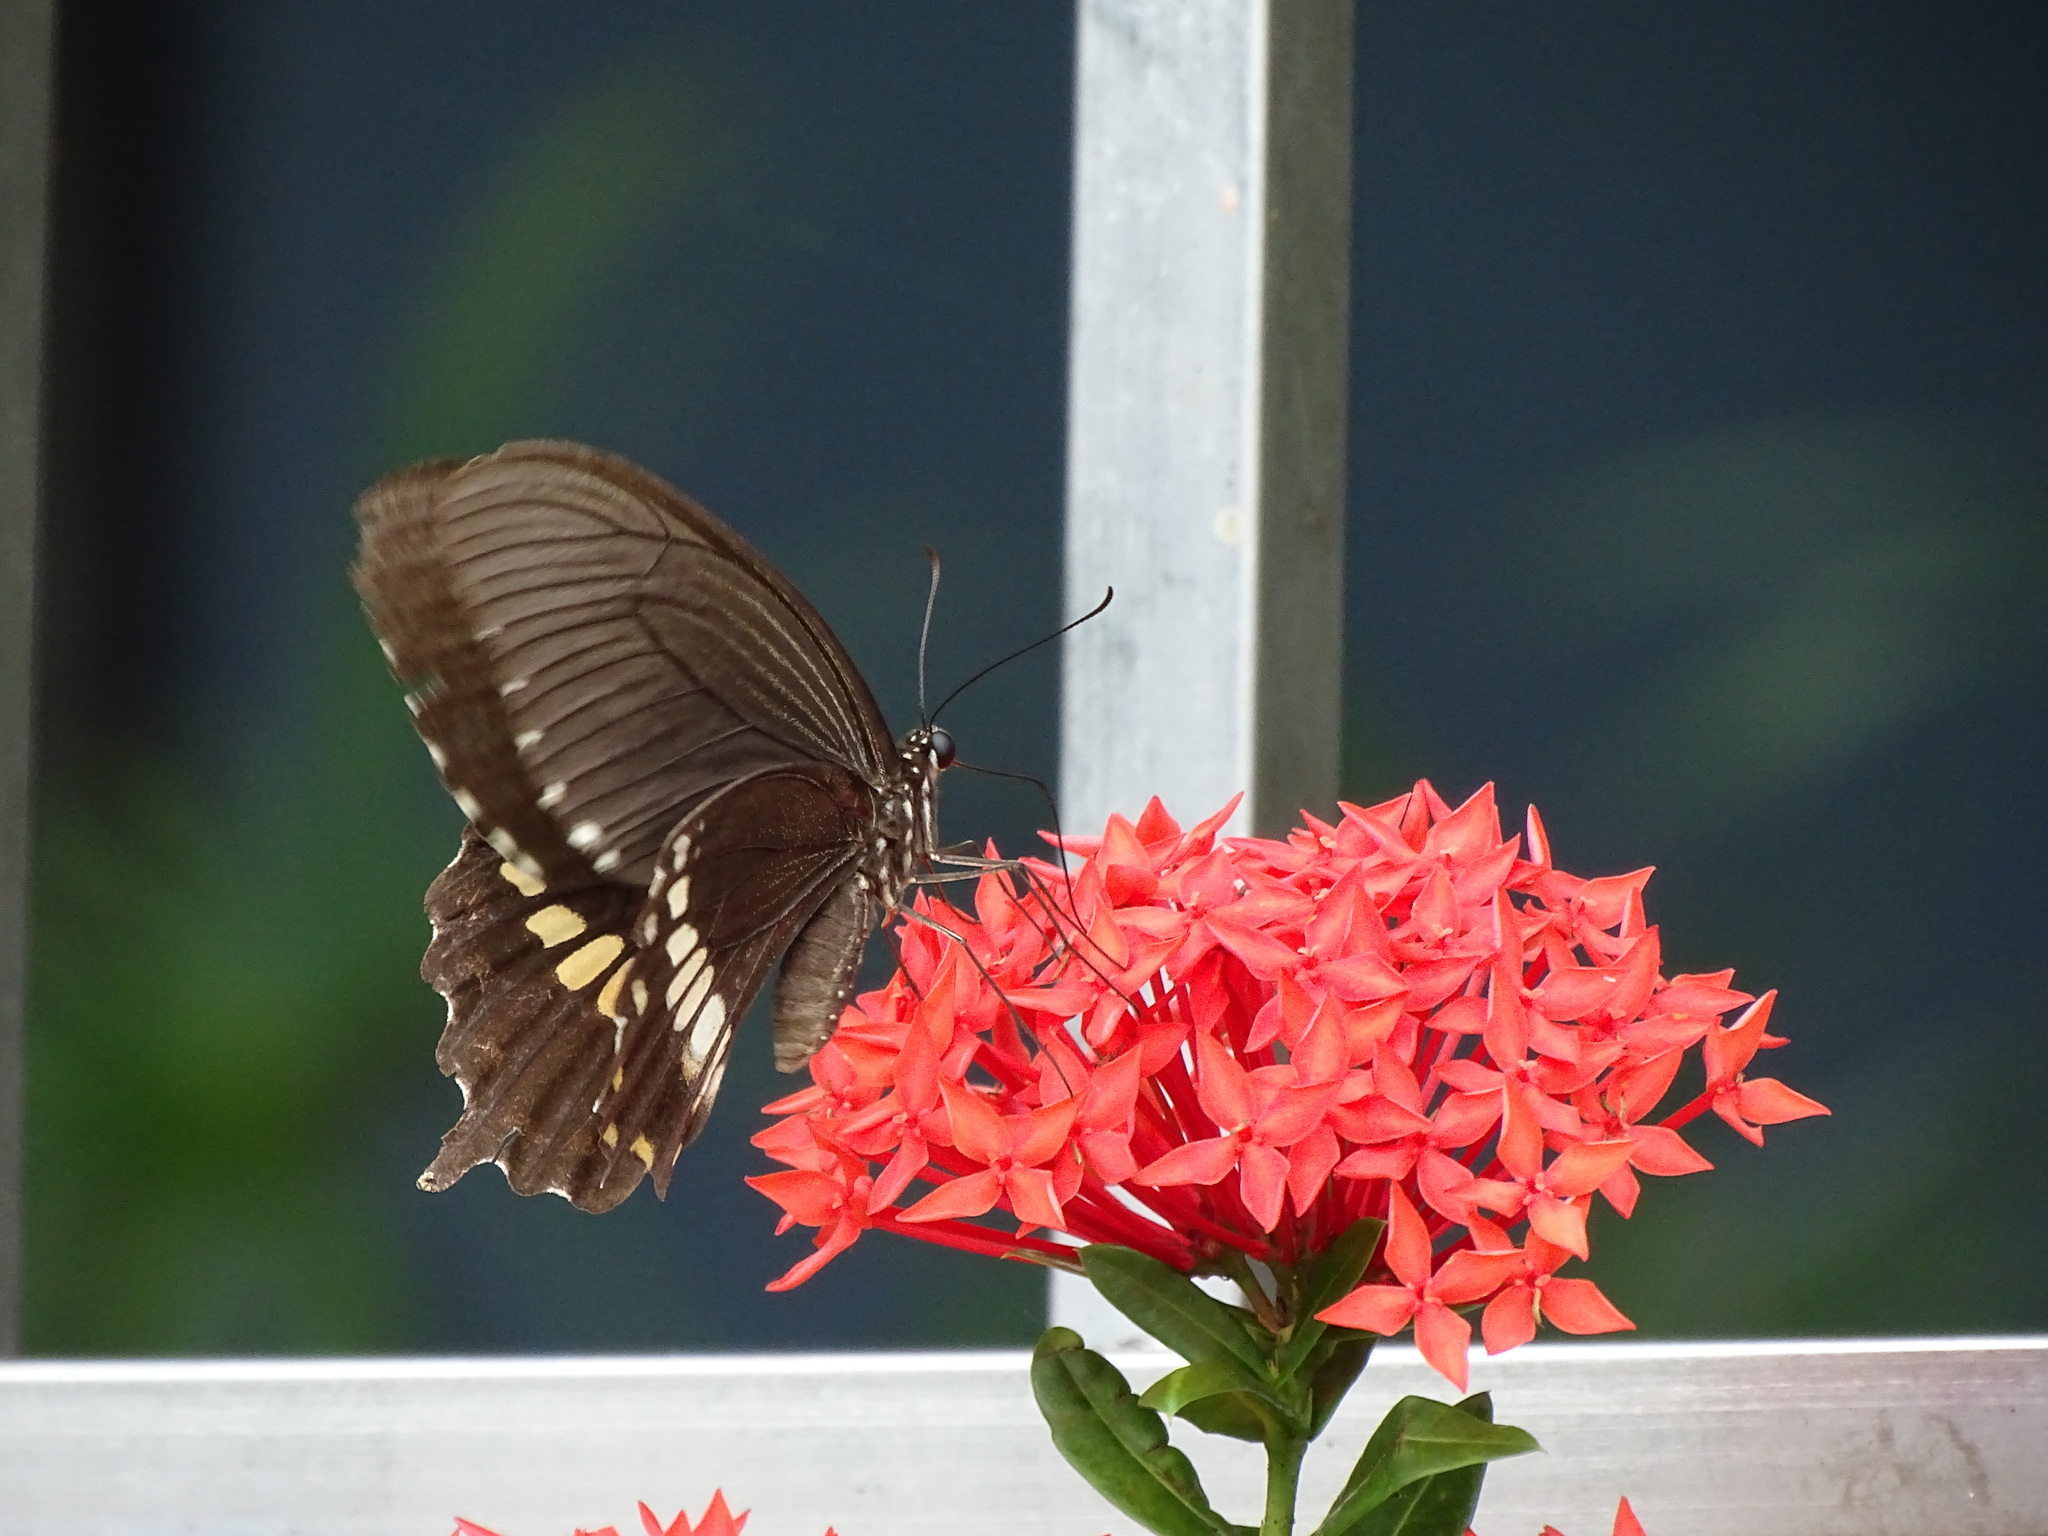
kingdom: Animalia
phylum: Arthropoda
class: Insecta
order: Lepidoptera
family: Papilionidae
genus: Papilio
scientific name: Papilio polytes
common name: Common mormon
